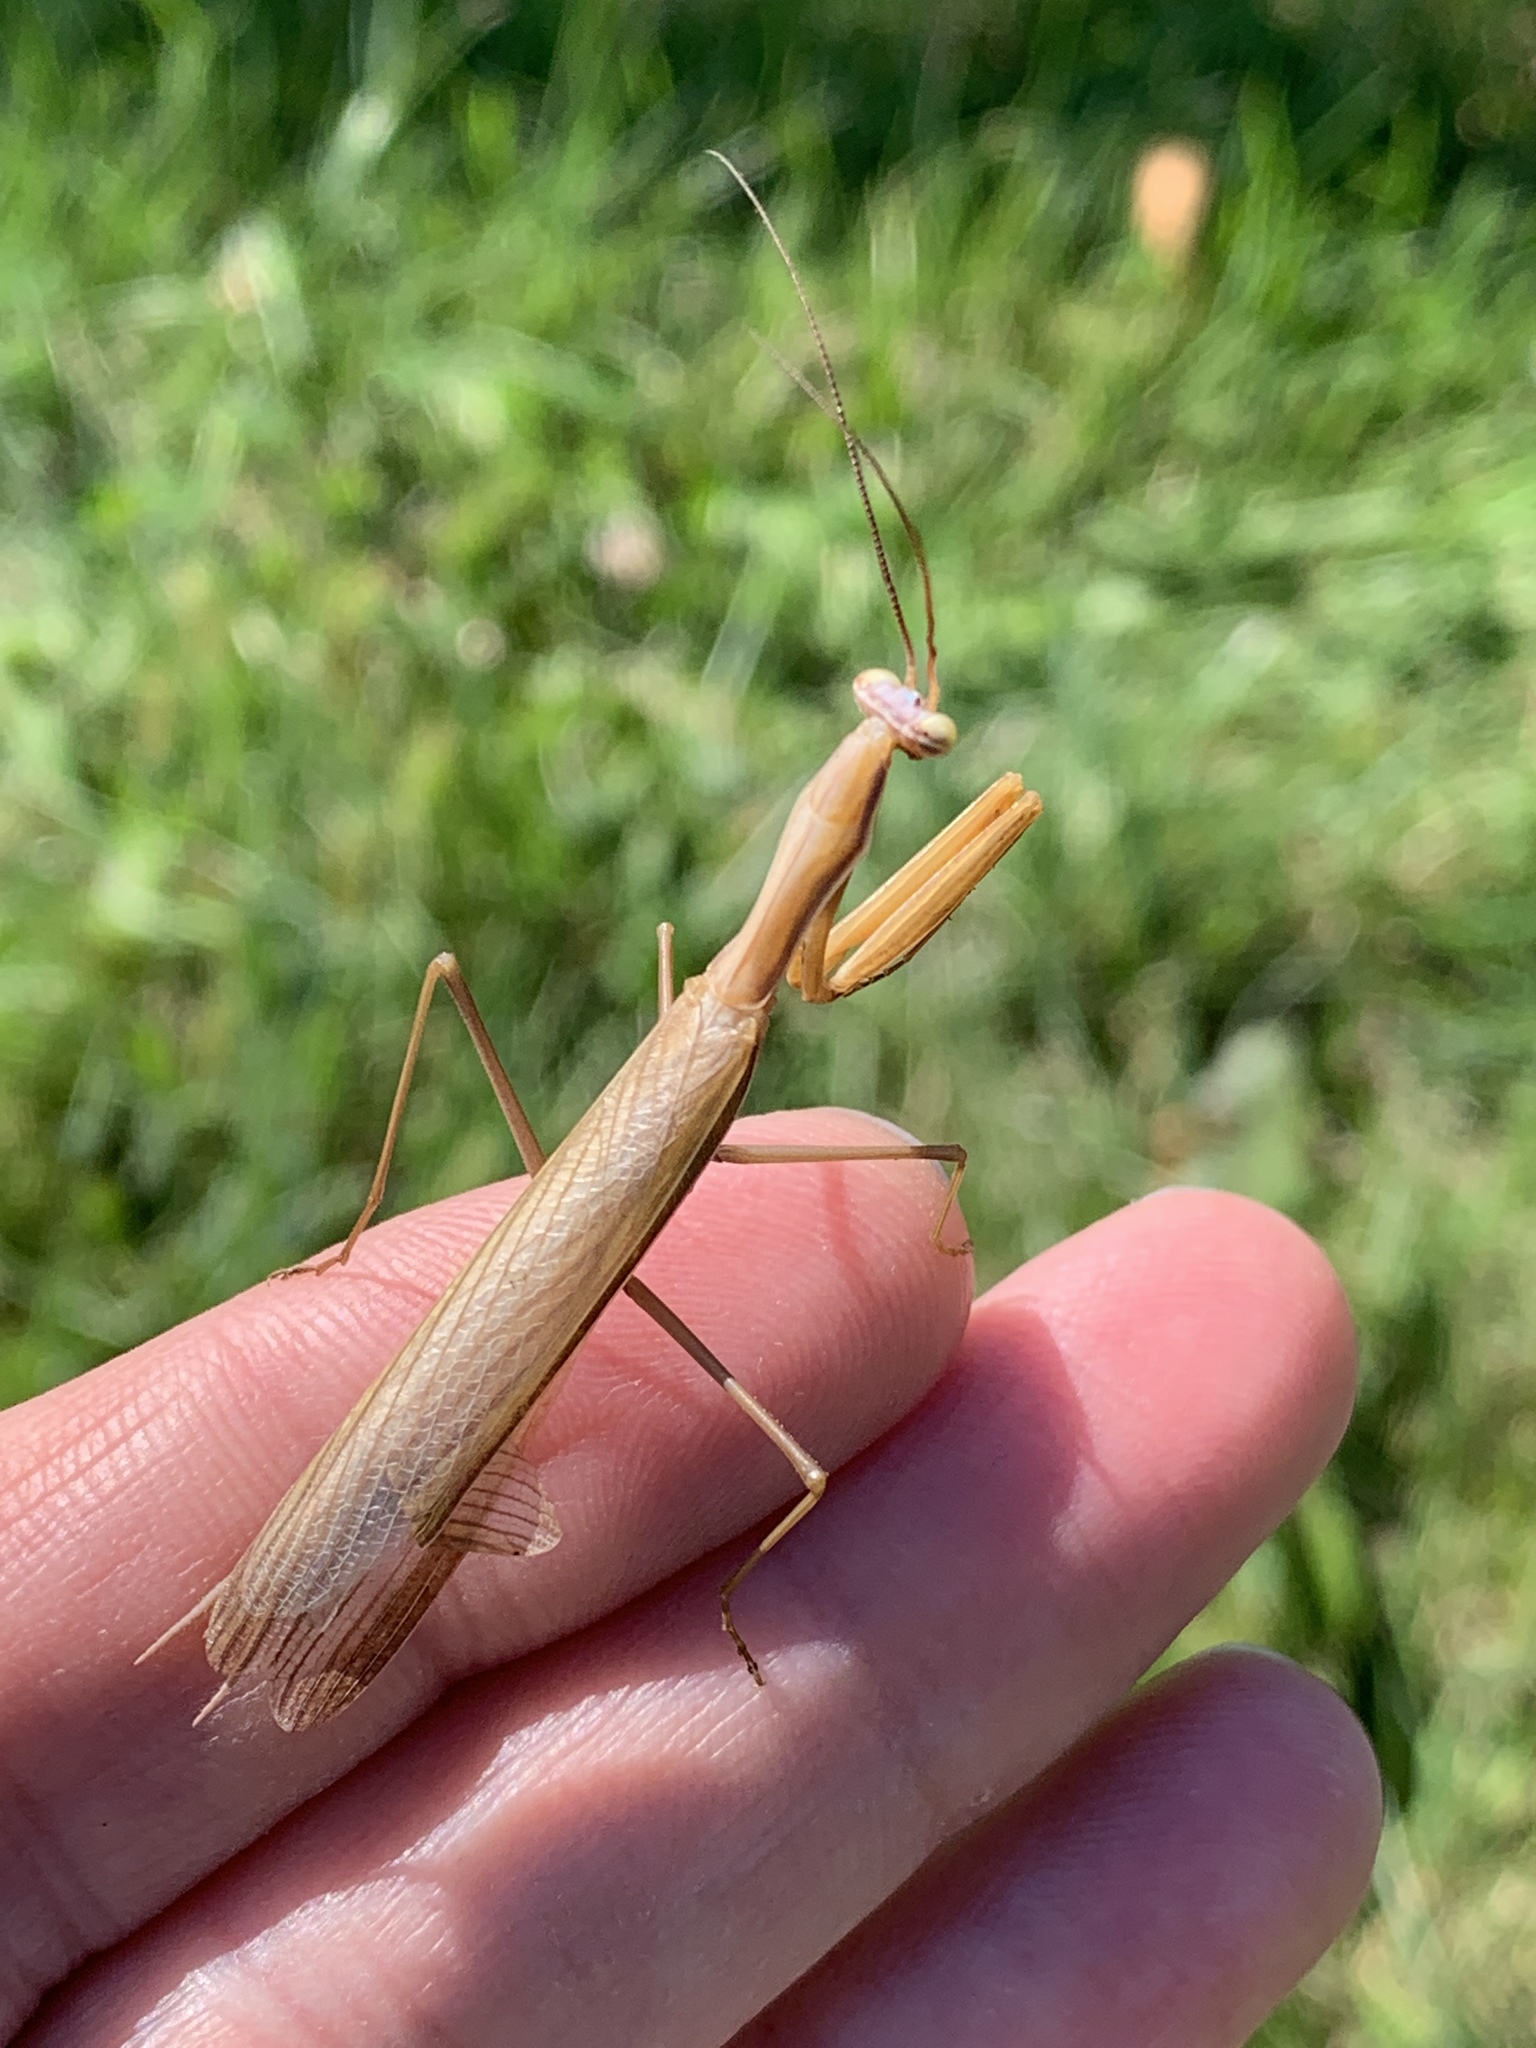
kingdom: Animalia
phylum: Arthropoda
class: Insecta
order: Mantodea
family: Mantidae
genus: Mantis
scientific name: Mantis religiosa
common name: Praying mantis
